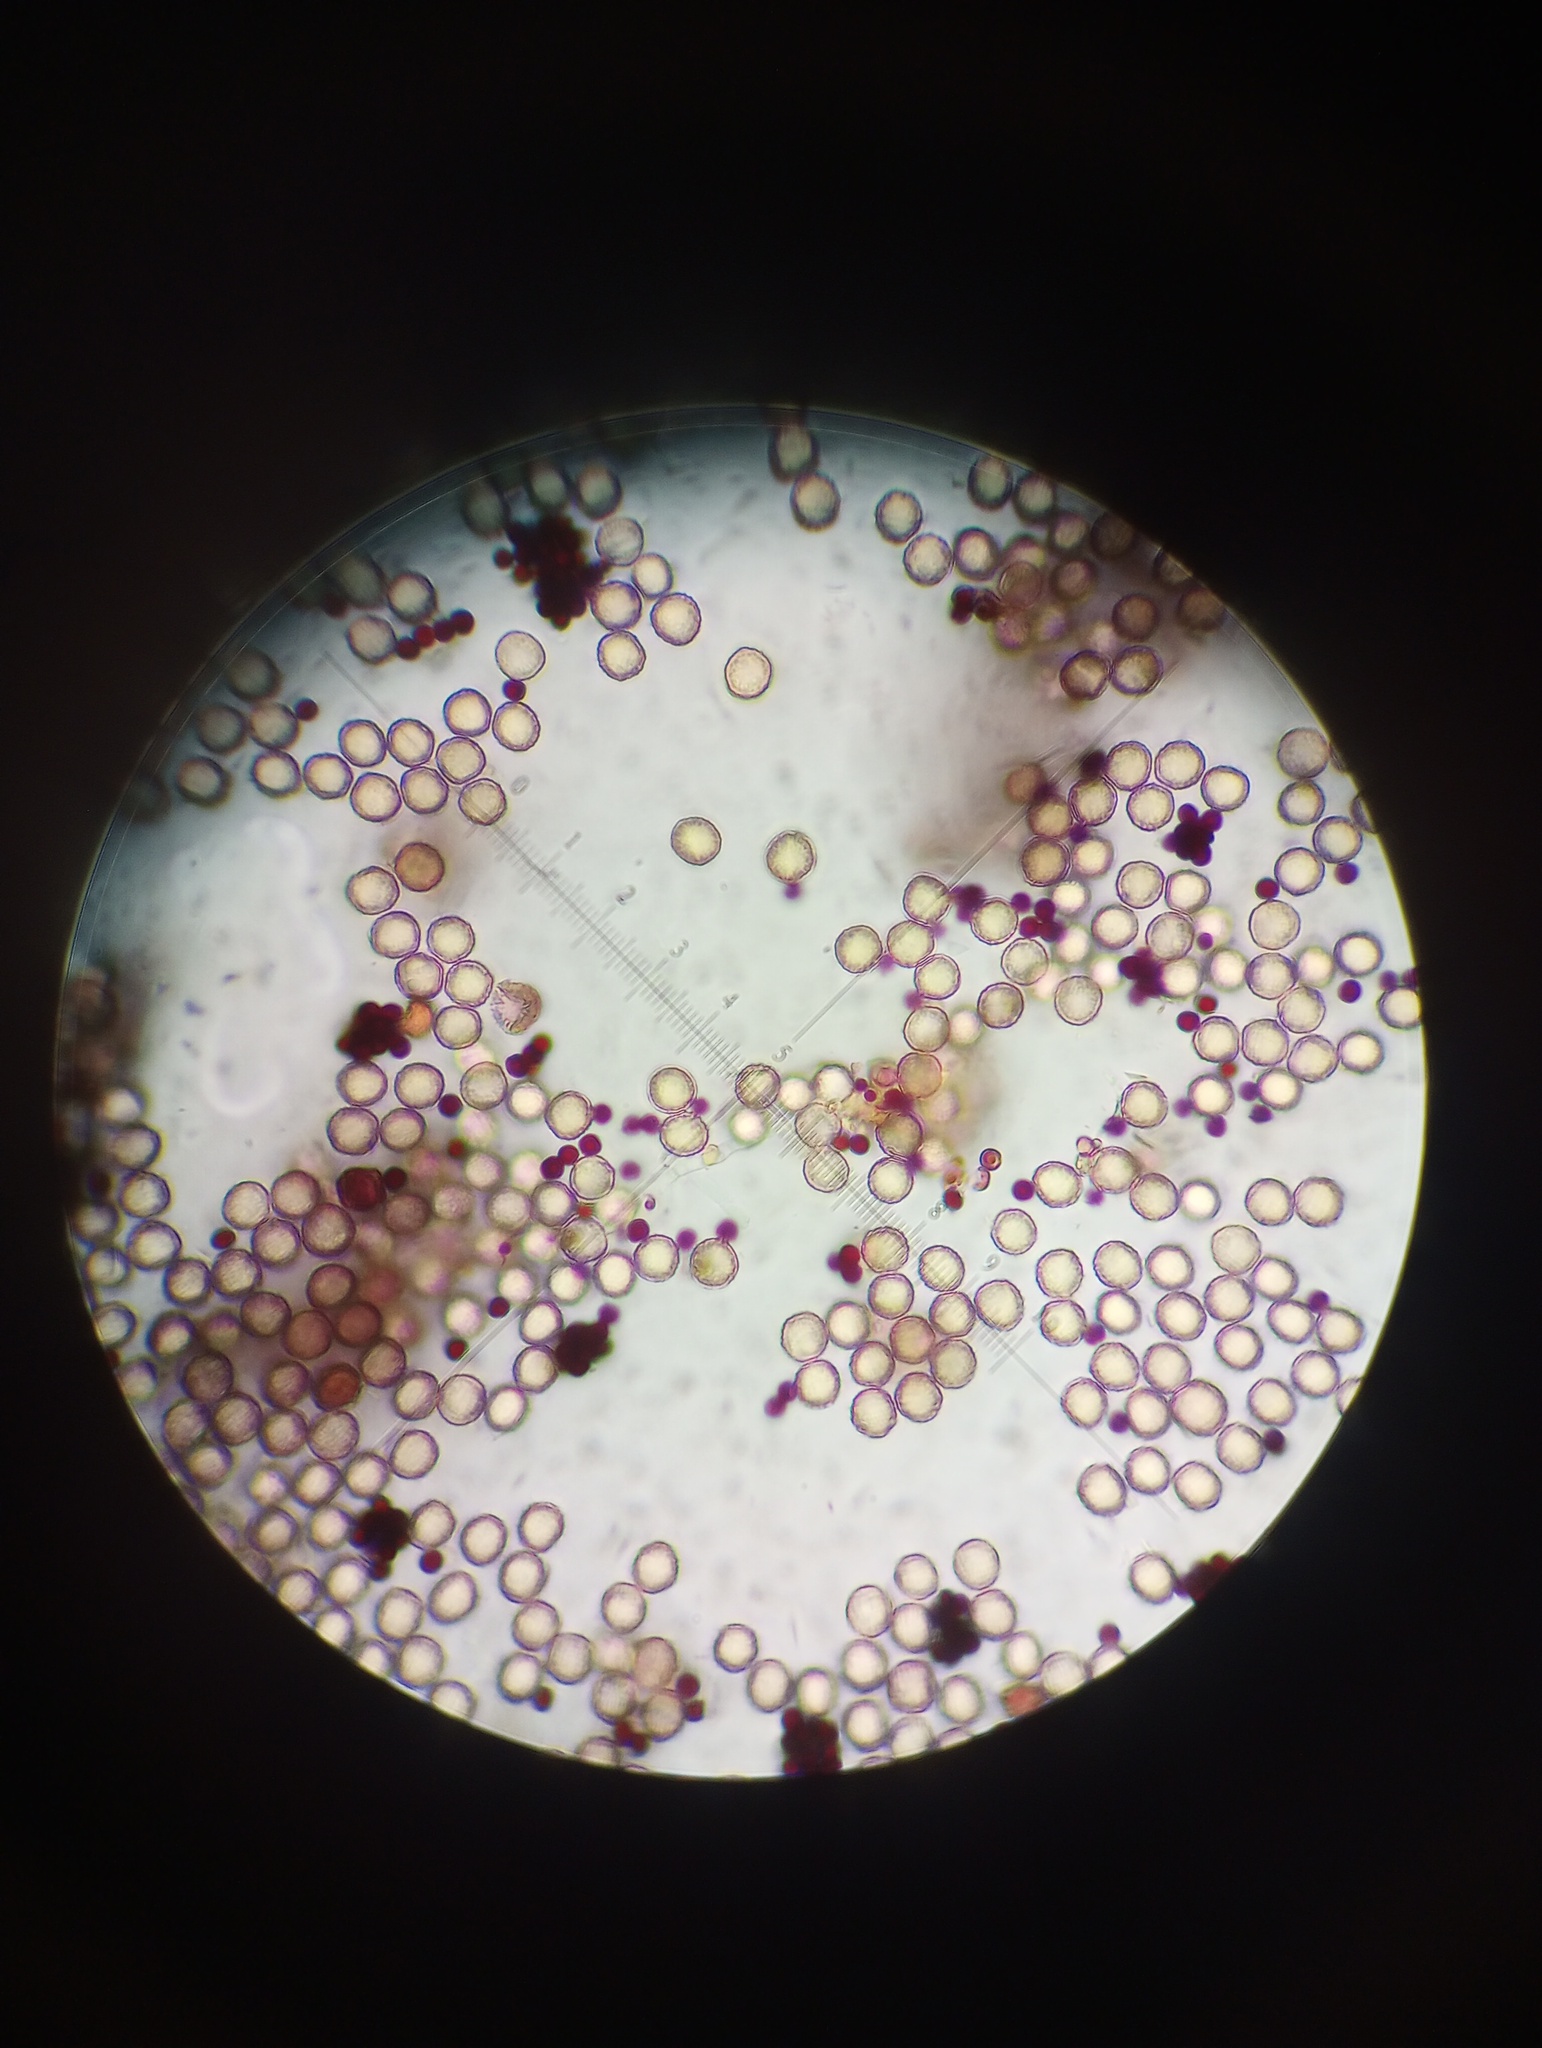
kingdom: Protozoa
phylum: Mycetozoa
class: Myxomycetes
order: Cribrariales
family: Cribrariaceae
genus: Cribraria
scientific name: Cribraria purpurea
